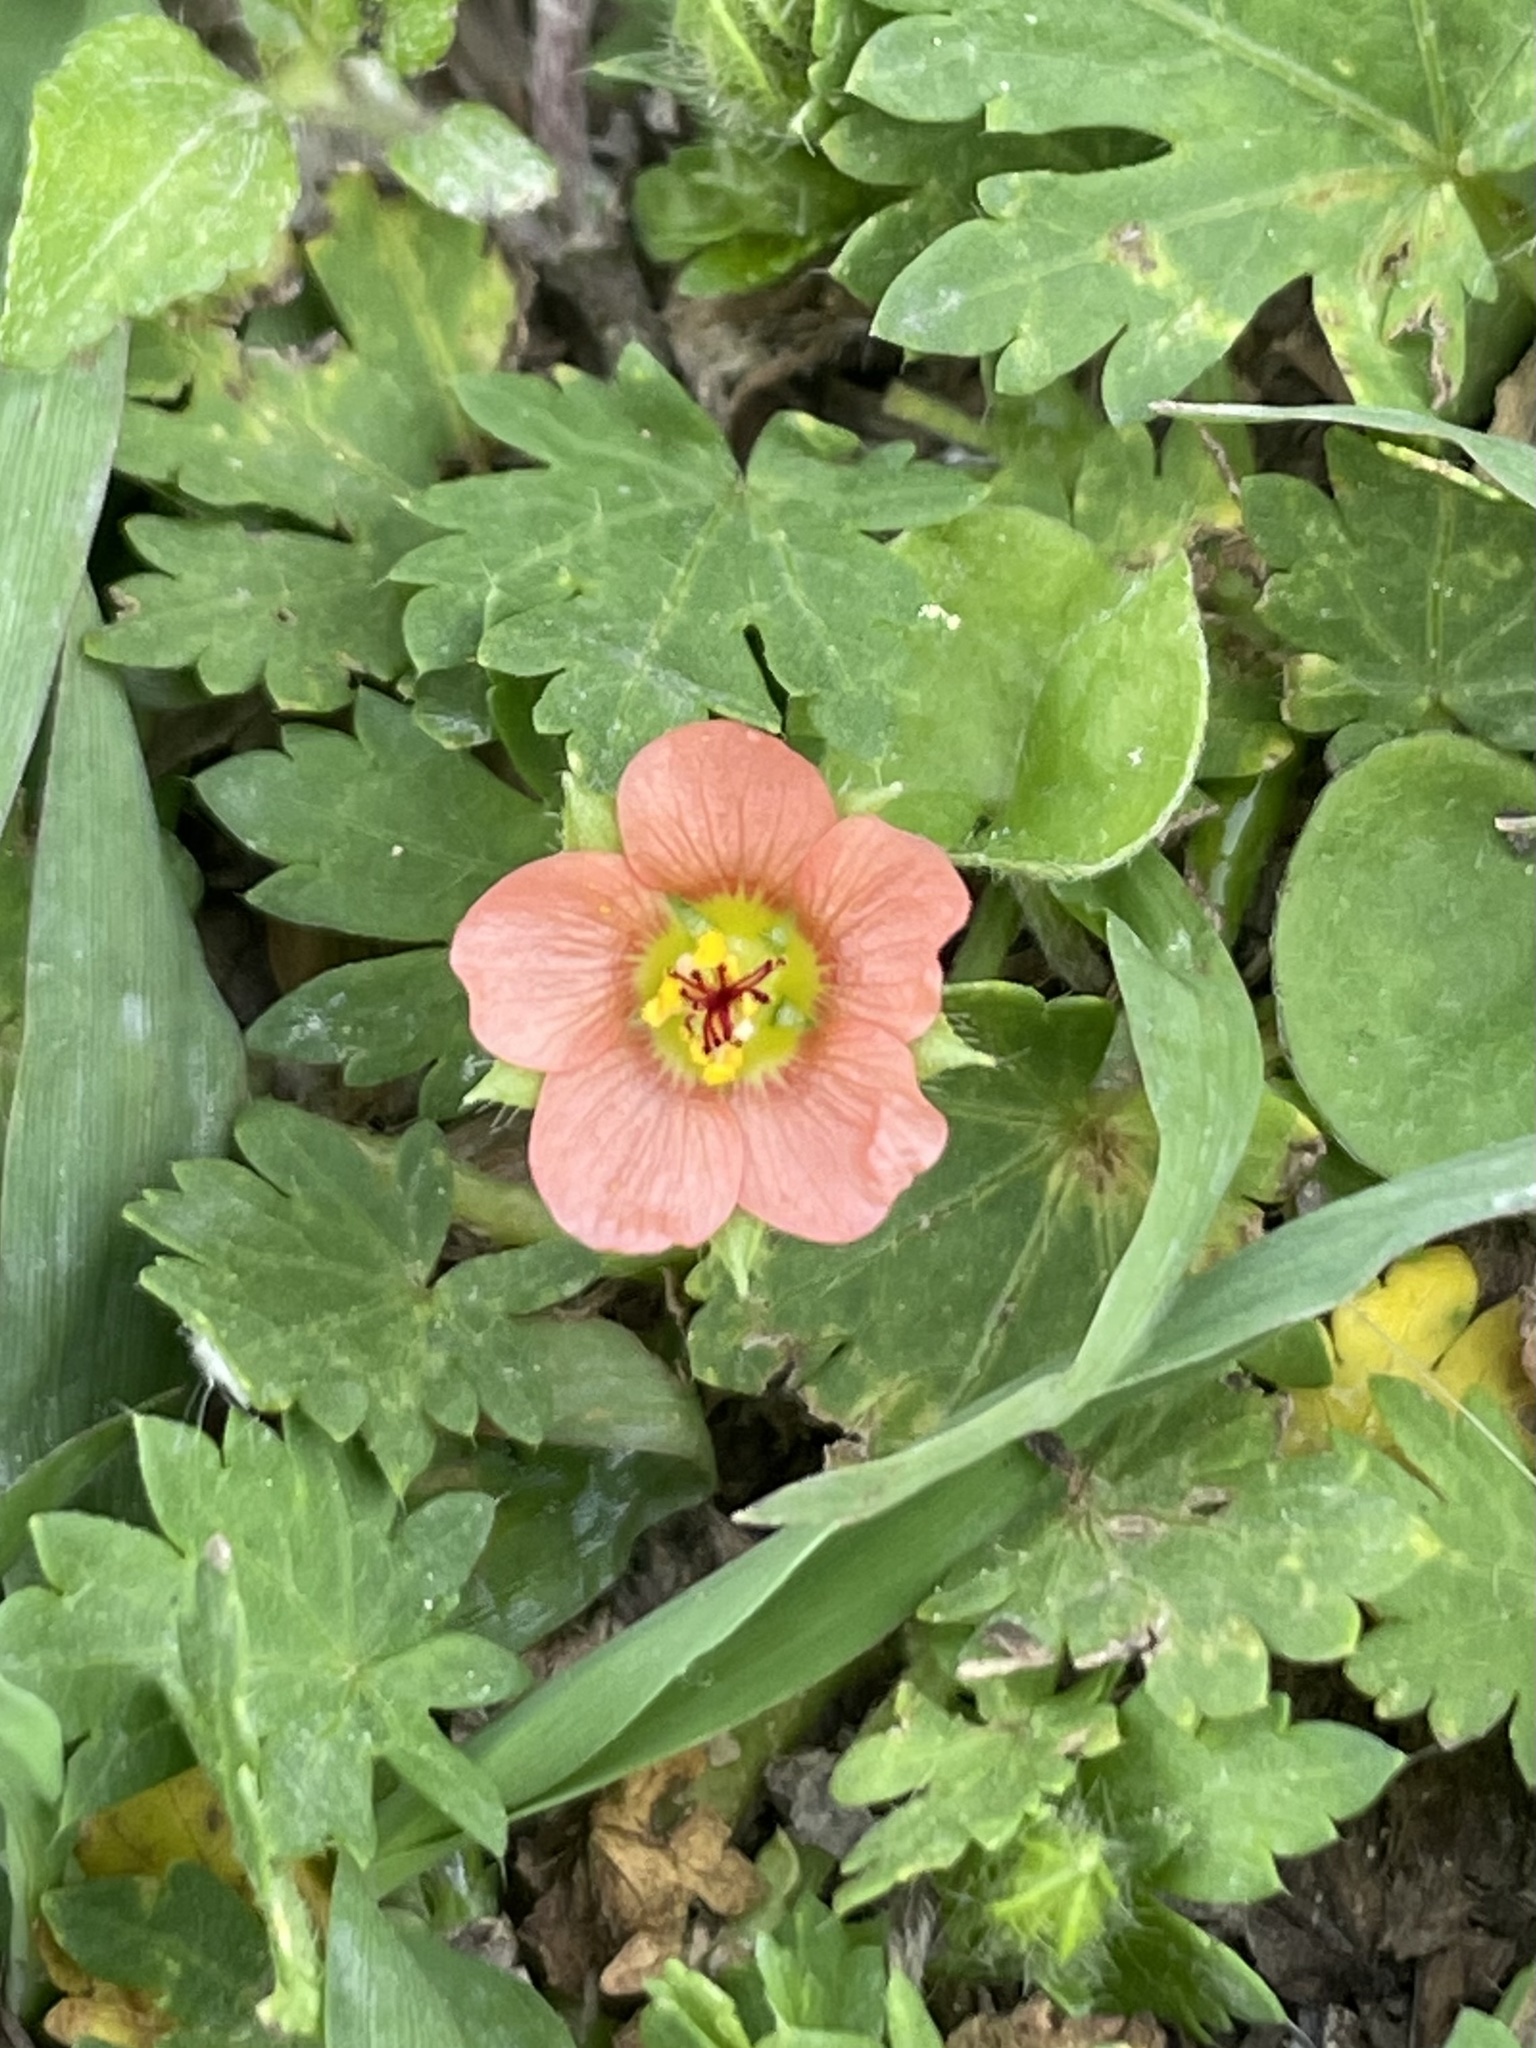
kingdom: Plantae
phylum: Tracheophyta
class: Magnoliopsida
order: Malvales
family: Malvaceae
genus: Modiola
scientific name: Modiola caroliniana
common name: Carolina bristlemallow
